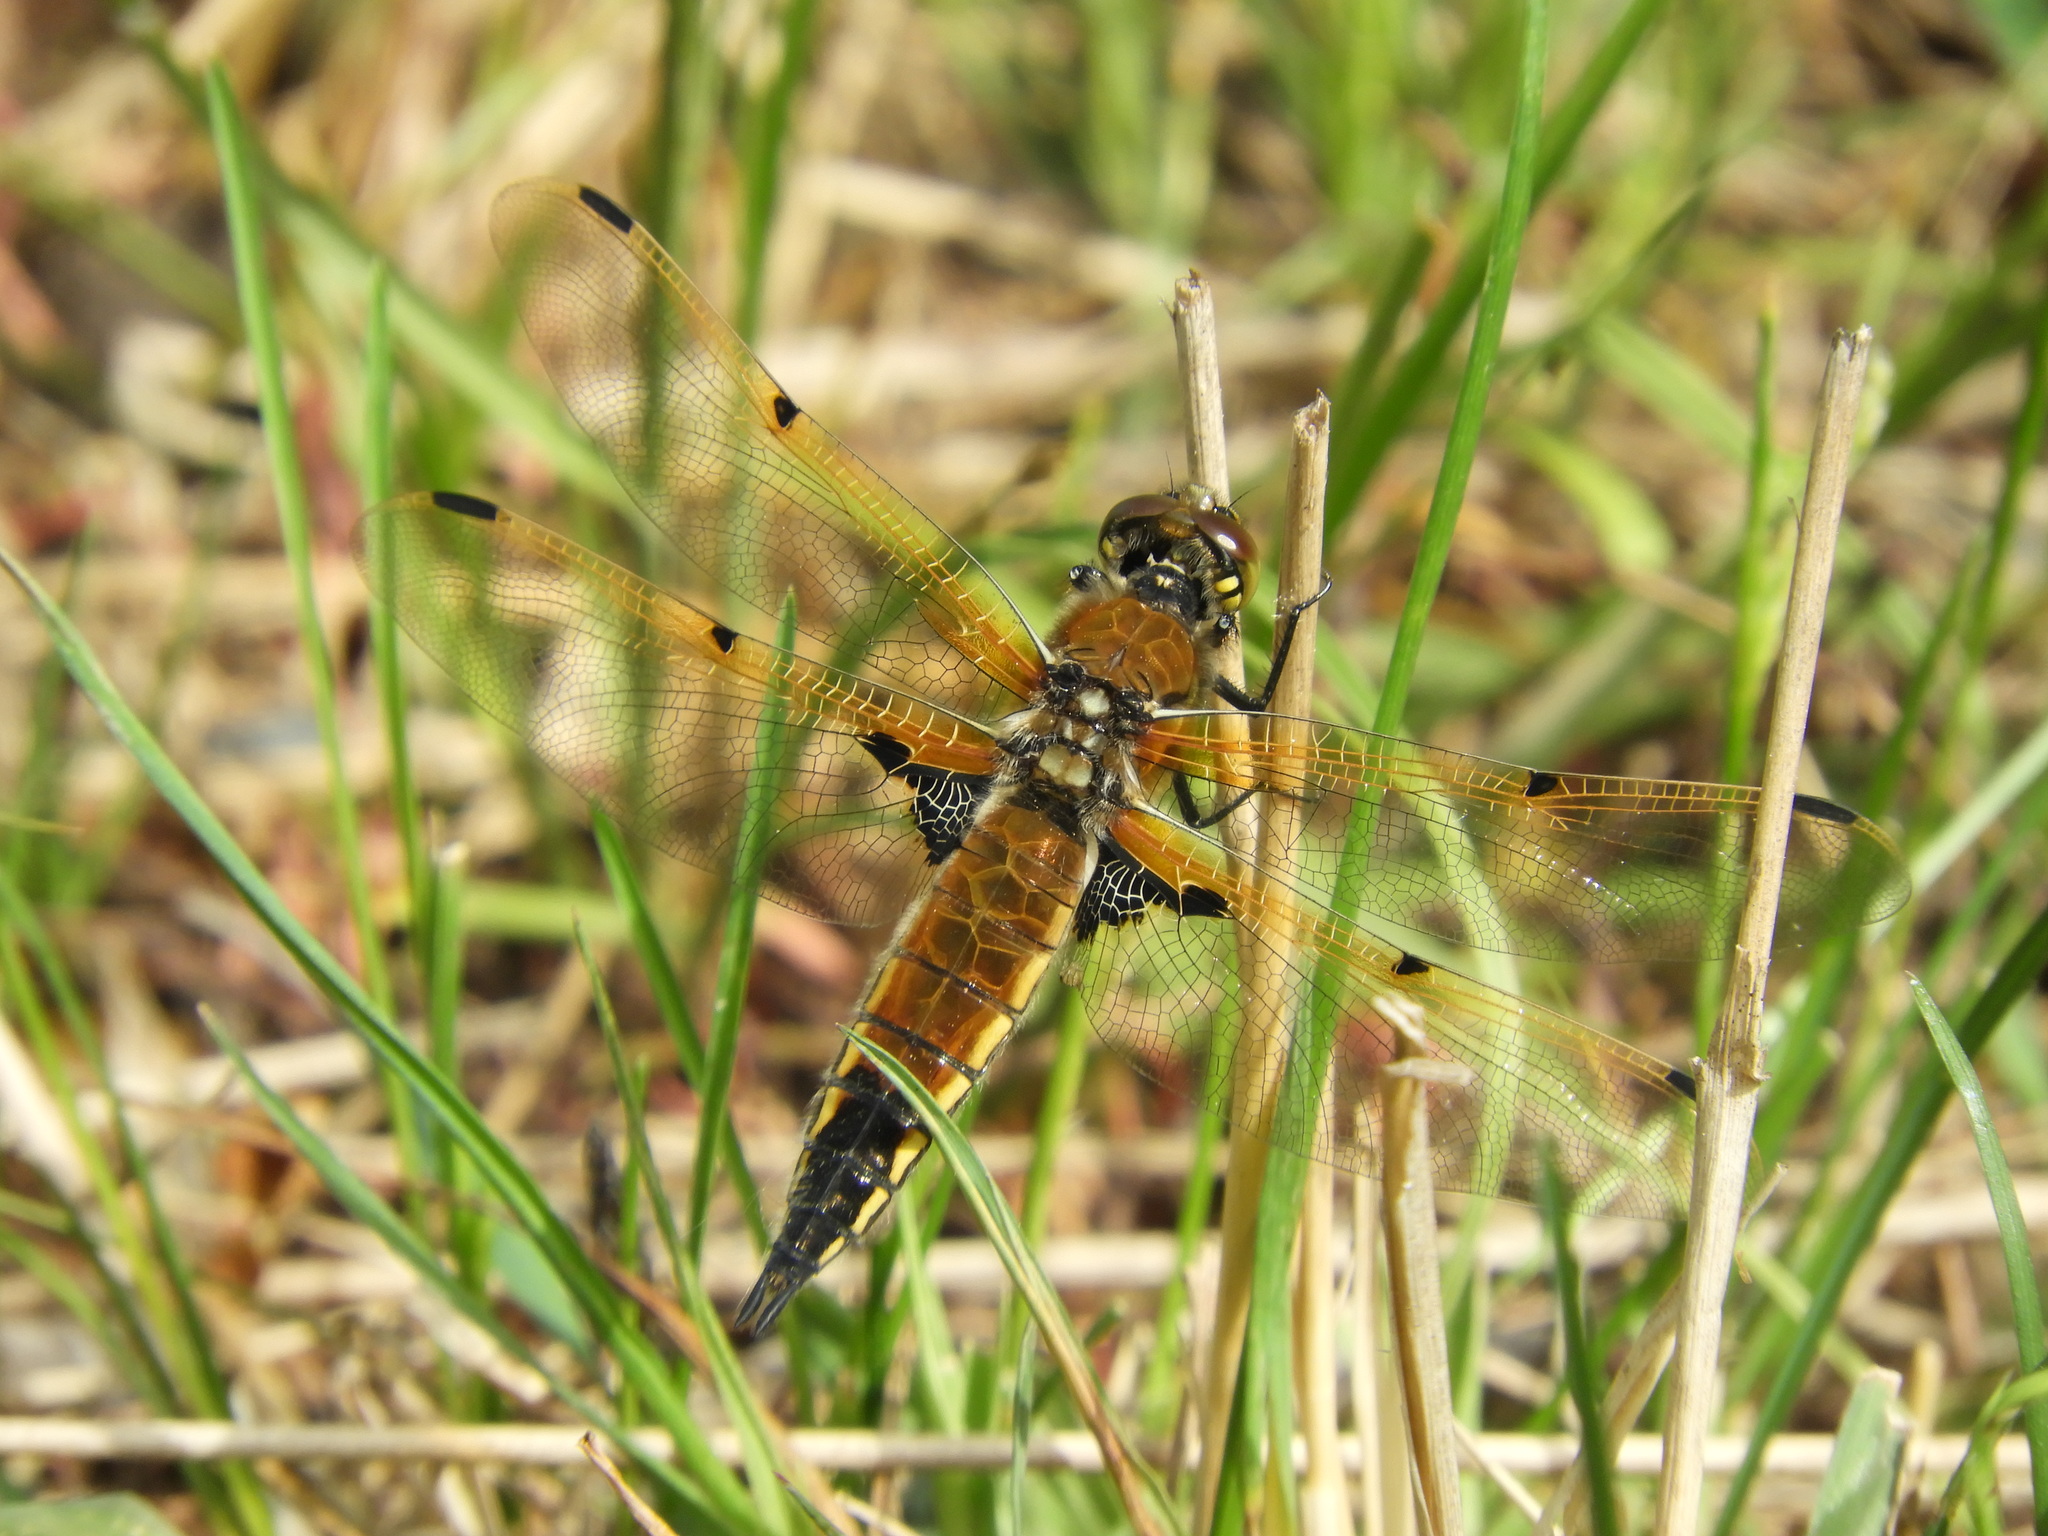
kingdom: Animalia
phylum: Arthropoda
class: Insecta
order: Odonata
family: Libellulidae
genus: Libellula
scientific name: Libellula quadrimaculata
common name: Four-spotted chaser
